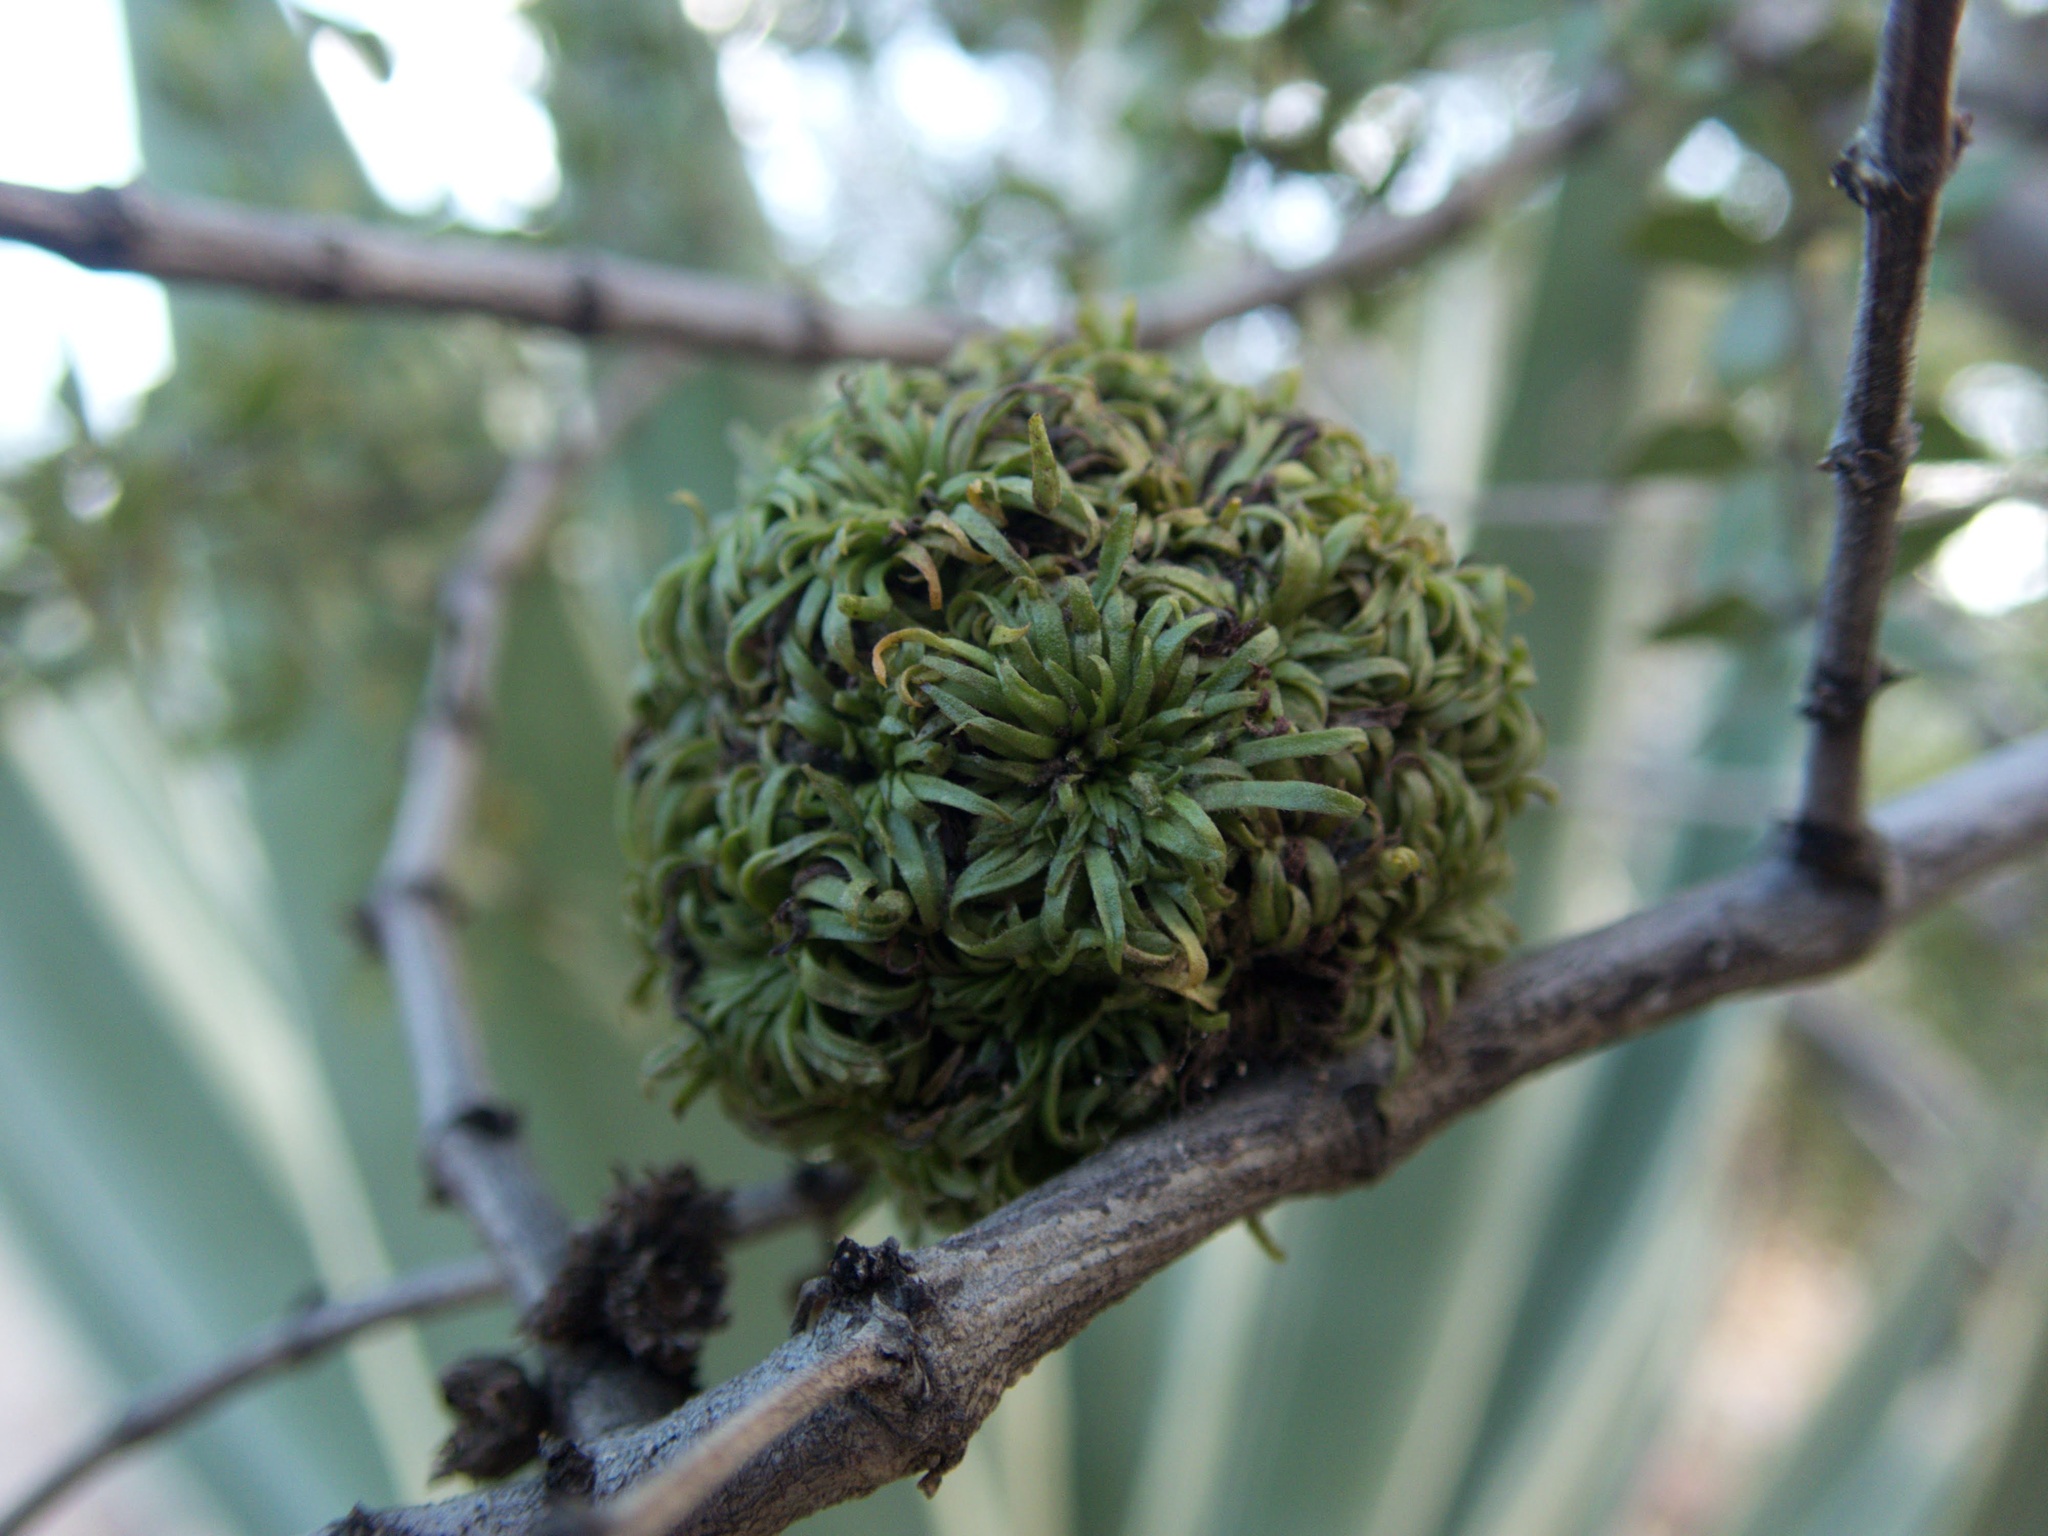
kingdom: Animalia
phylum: Arthropoda
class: Insecta
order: Diptera
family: Cecidomyiidae
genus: Asphondylia
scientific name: Asphondylia auripila
